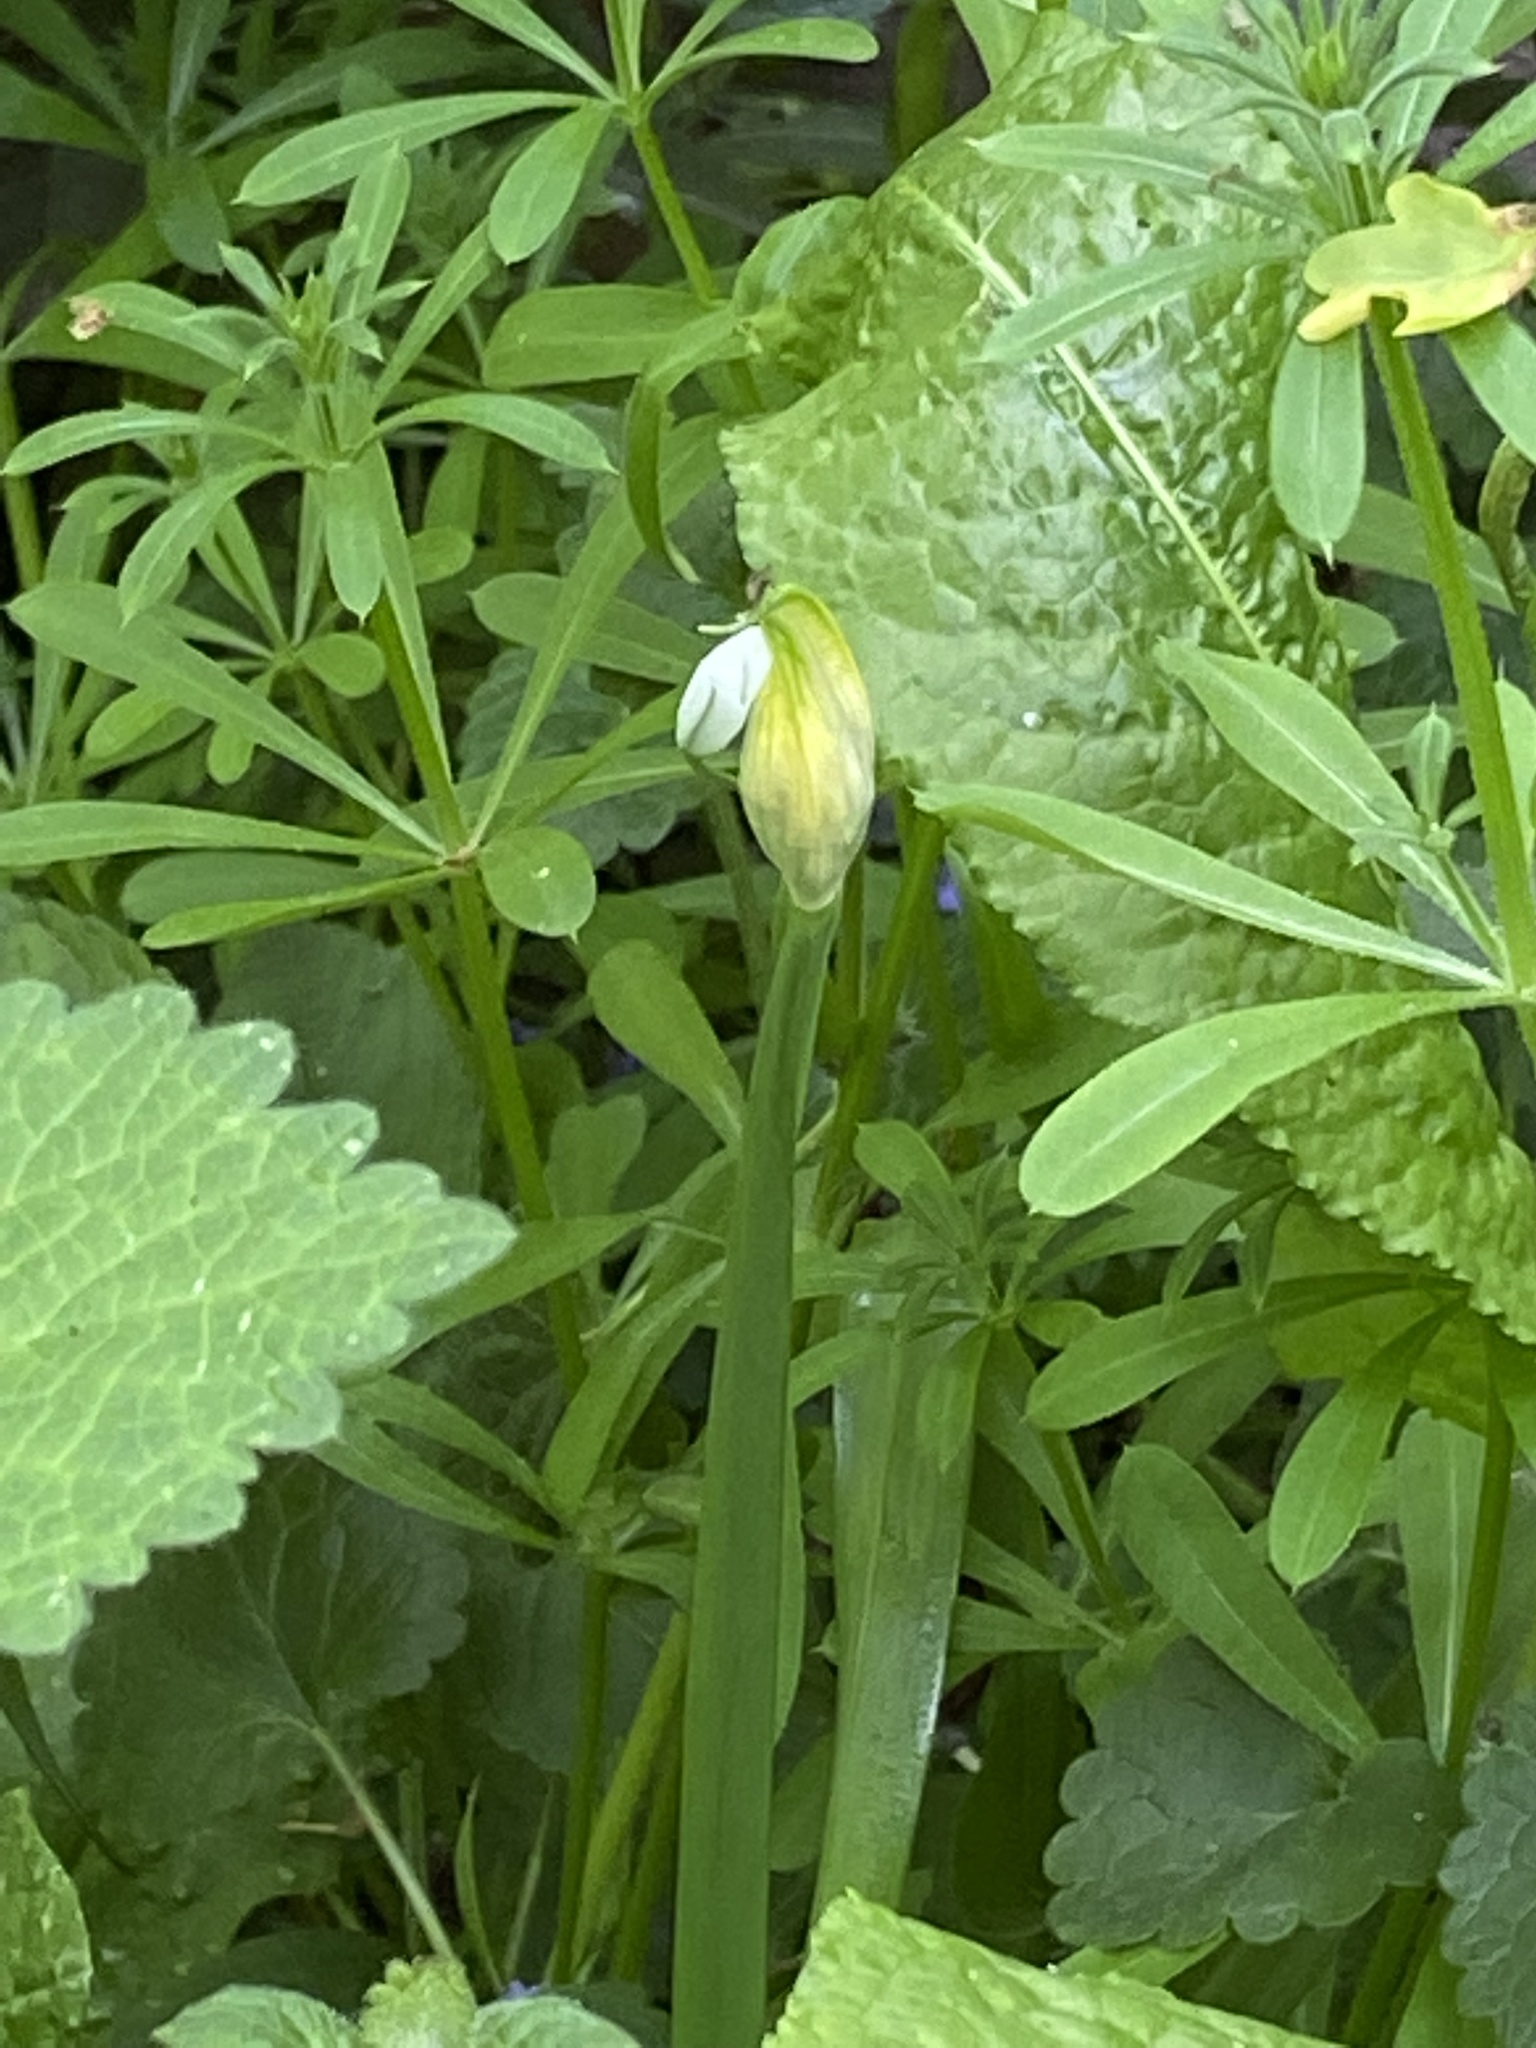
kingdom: Plantae
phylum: Tracheophyta
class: Liliopsida
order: Asparagales
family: Amaryllidaceae
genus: Allium
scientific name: Allium triquetrum
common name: Three-cornered garlic
